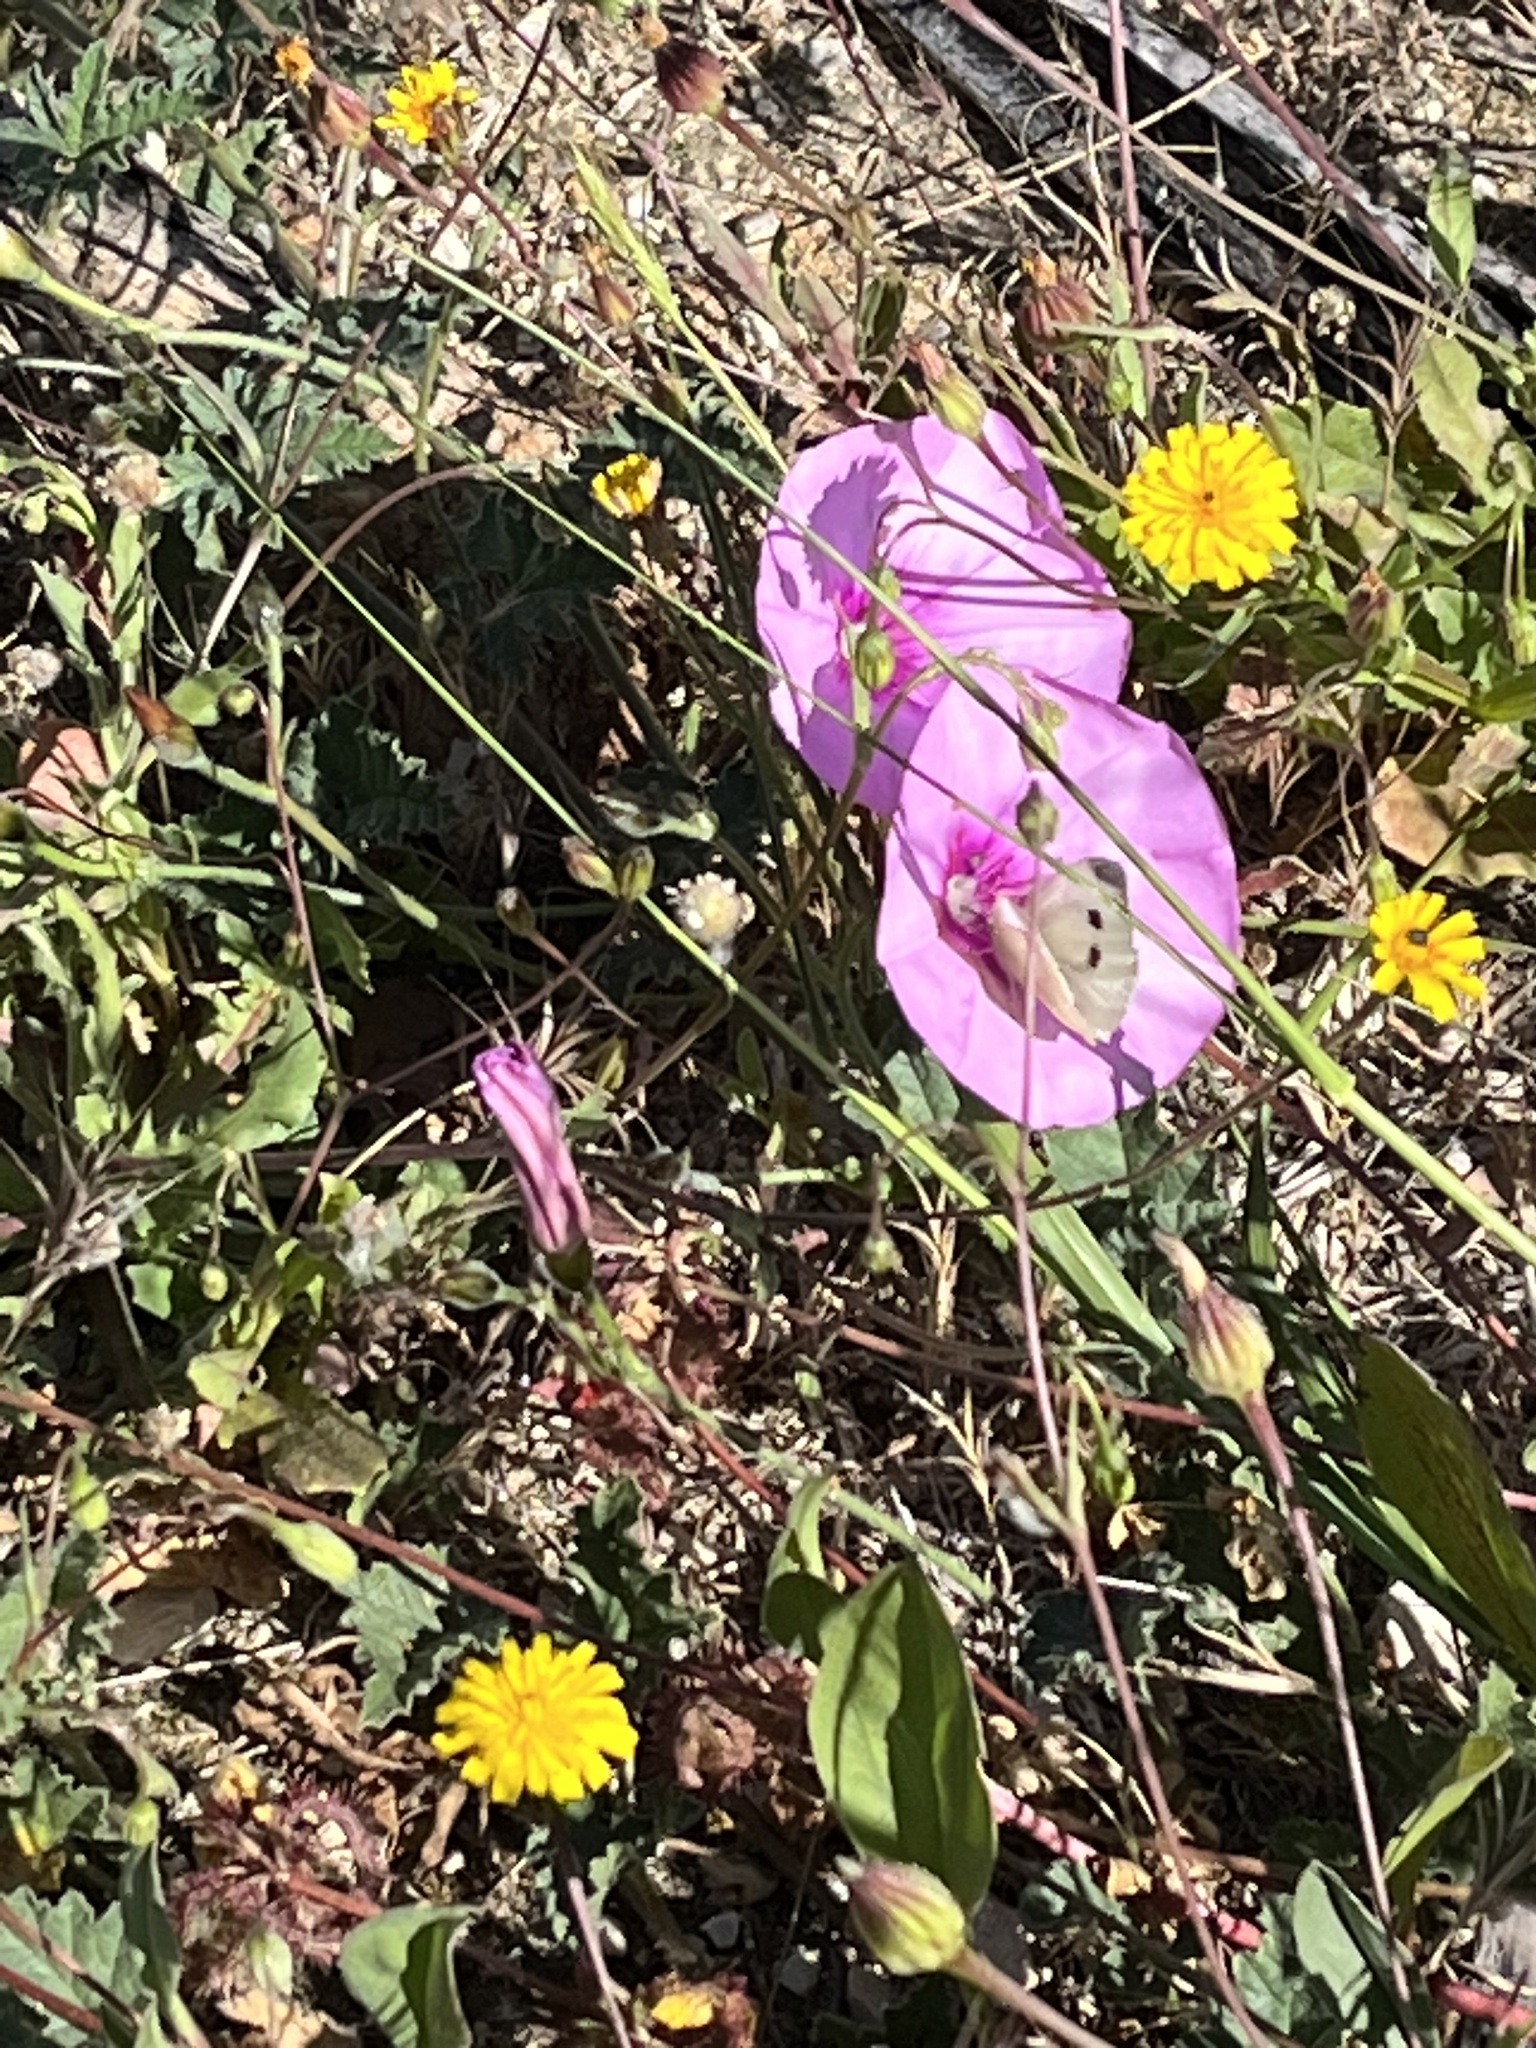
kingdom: Animalia
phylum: Arthropoda
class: Insecta
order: Lepidoptera
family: Pieridae
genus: Pieris
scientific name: Pieris rapae
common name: Small white
